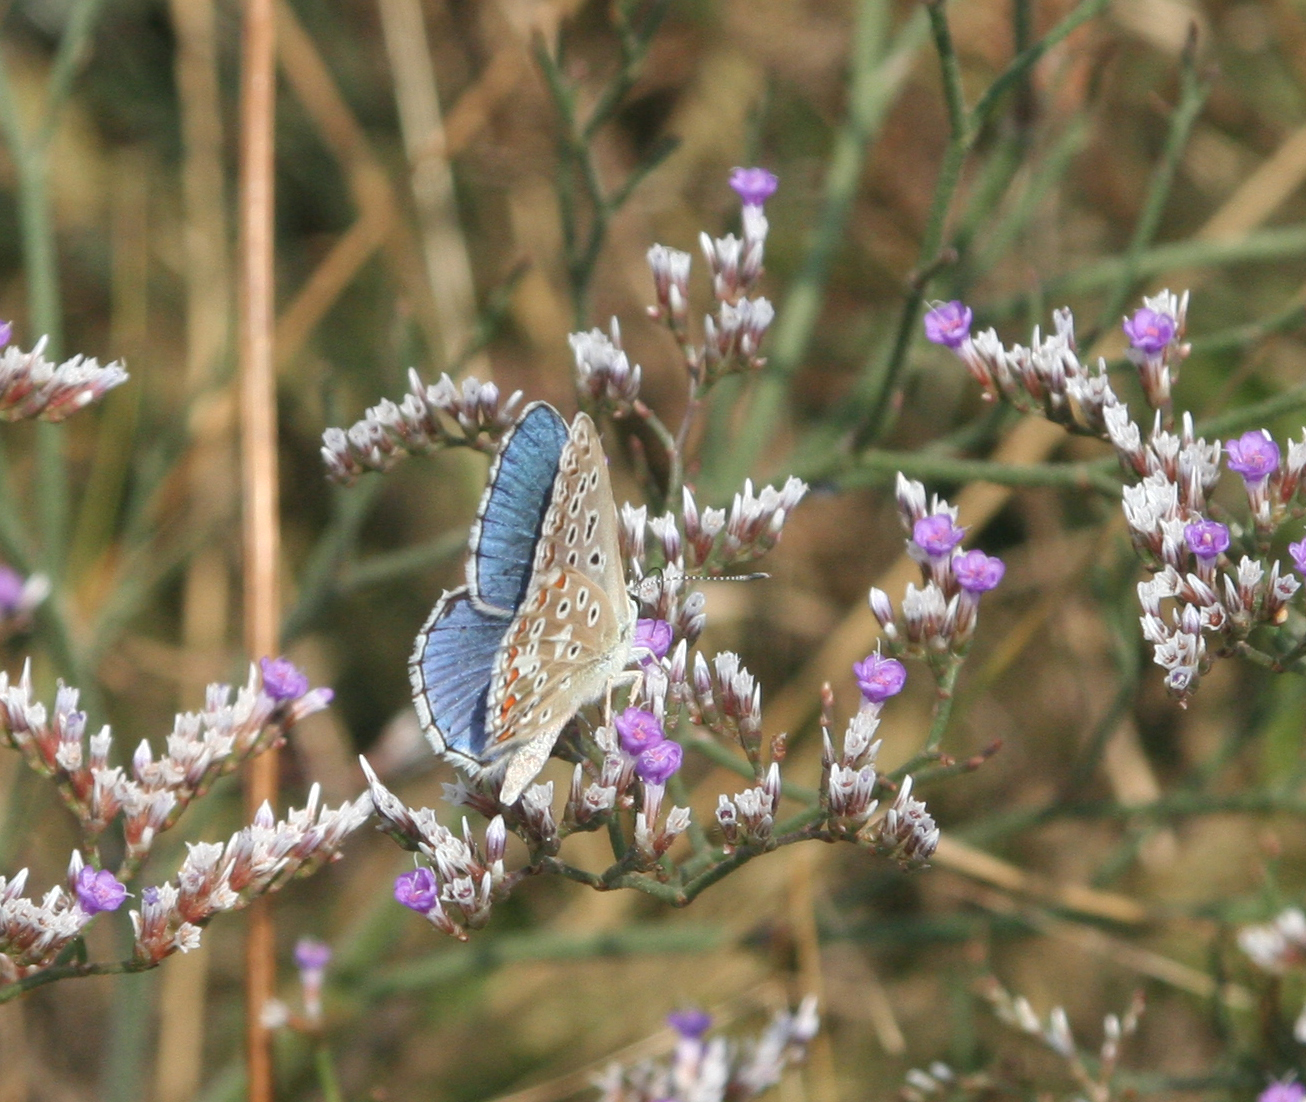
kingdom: Animalia
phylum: Arthropoda
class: Insecta
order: Lepidoptera
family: Lycaenidae
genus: Lysandra
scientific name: Lysandra bellargus
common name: Adonis blue
